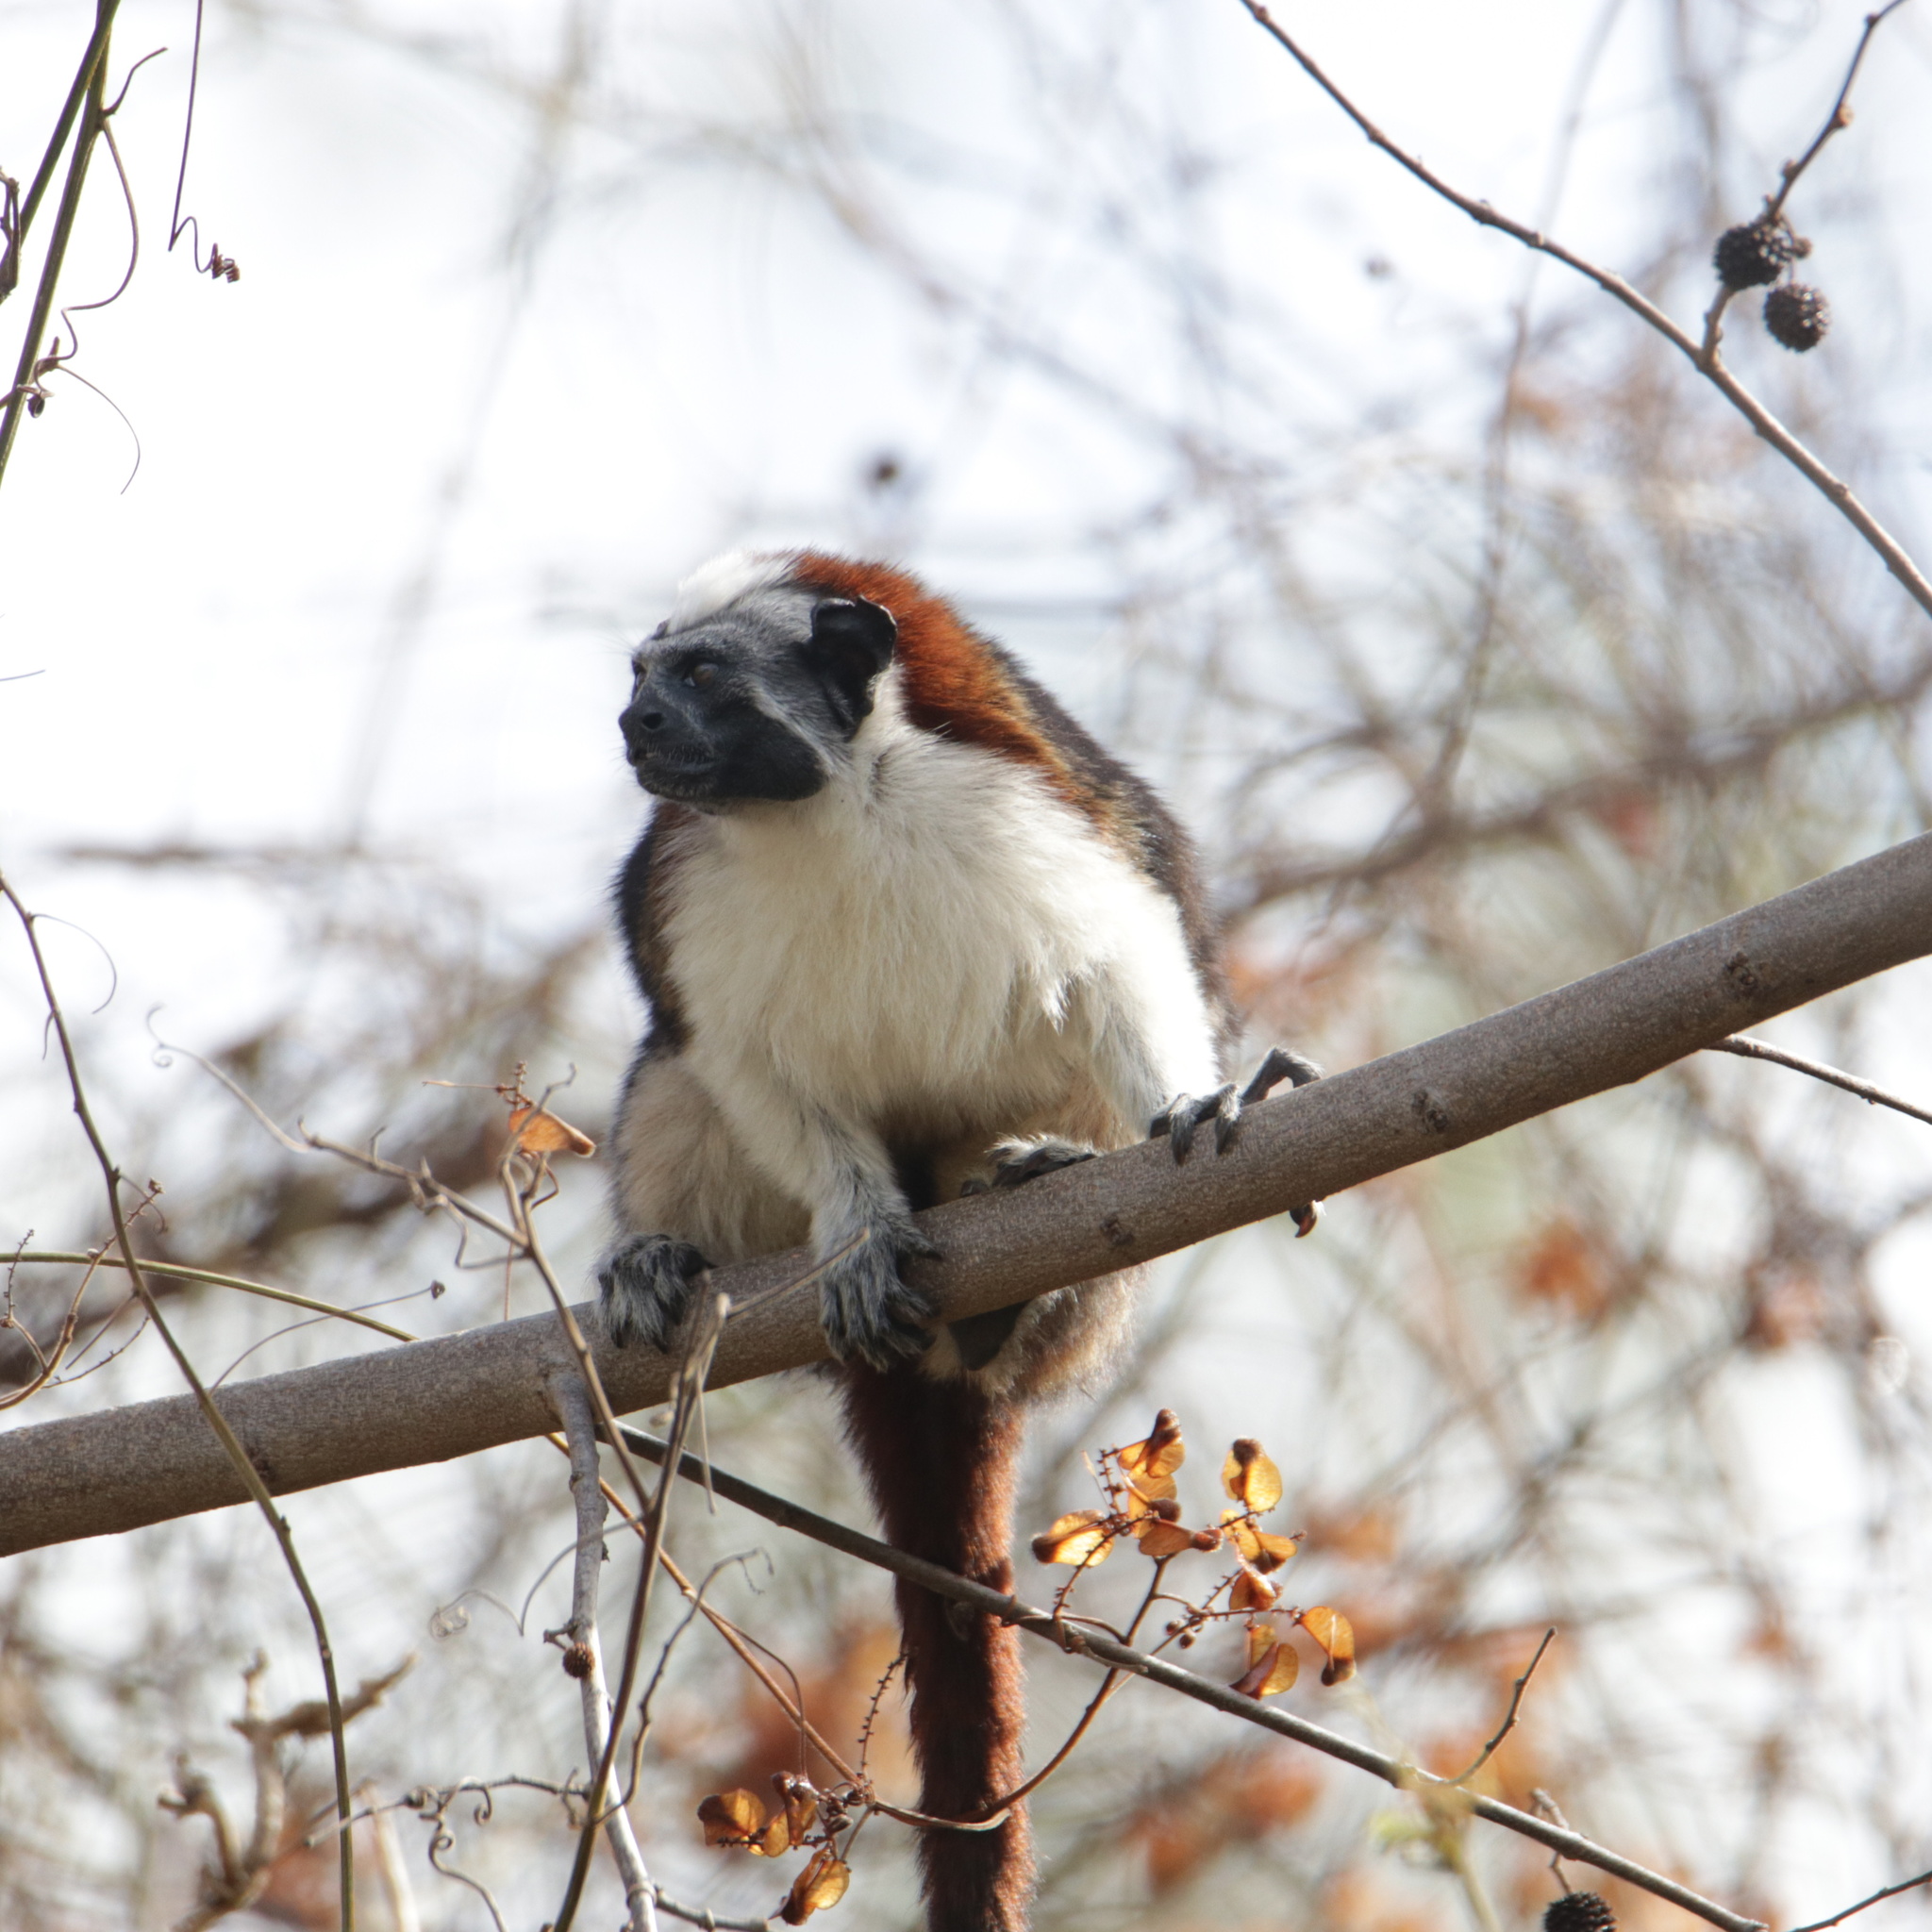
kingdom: Animalia
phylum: Chordata
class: Mammalia
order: Primates
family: Callitrichidae
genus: Saguinus
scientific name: Saguinus geoffroyi
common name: Geoffroy s tamarin
